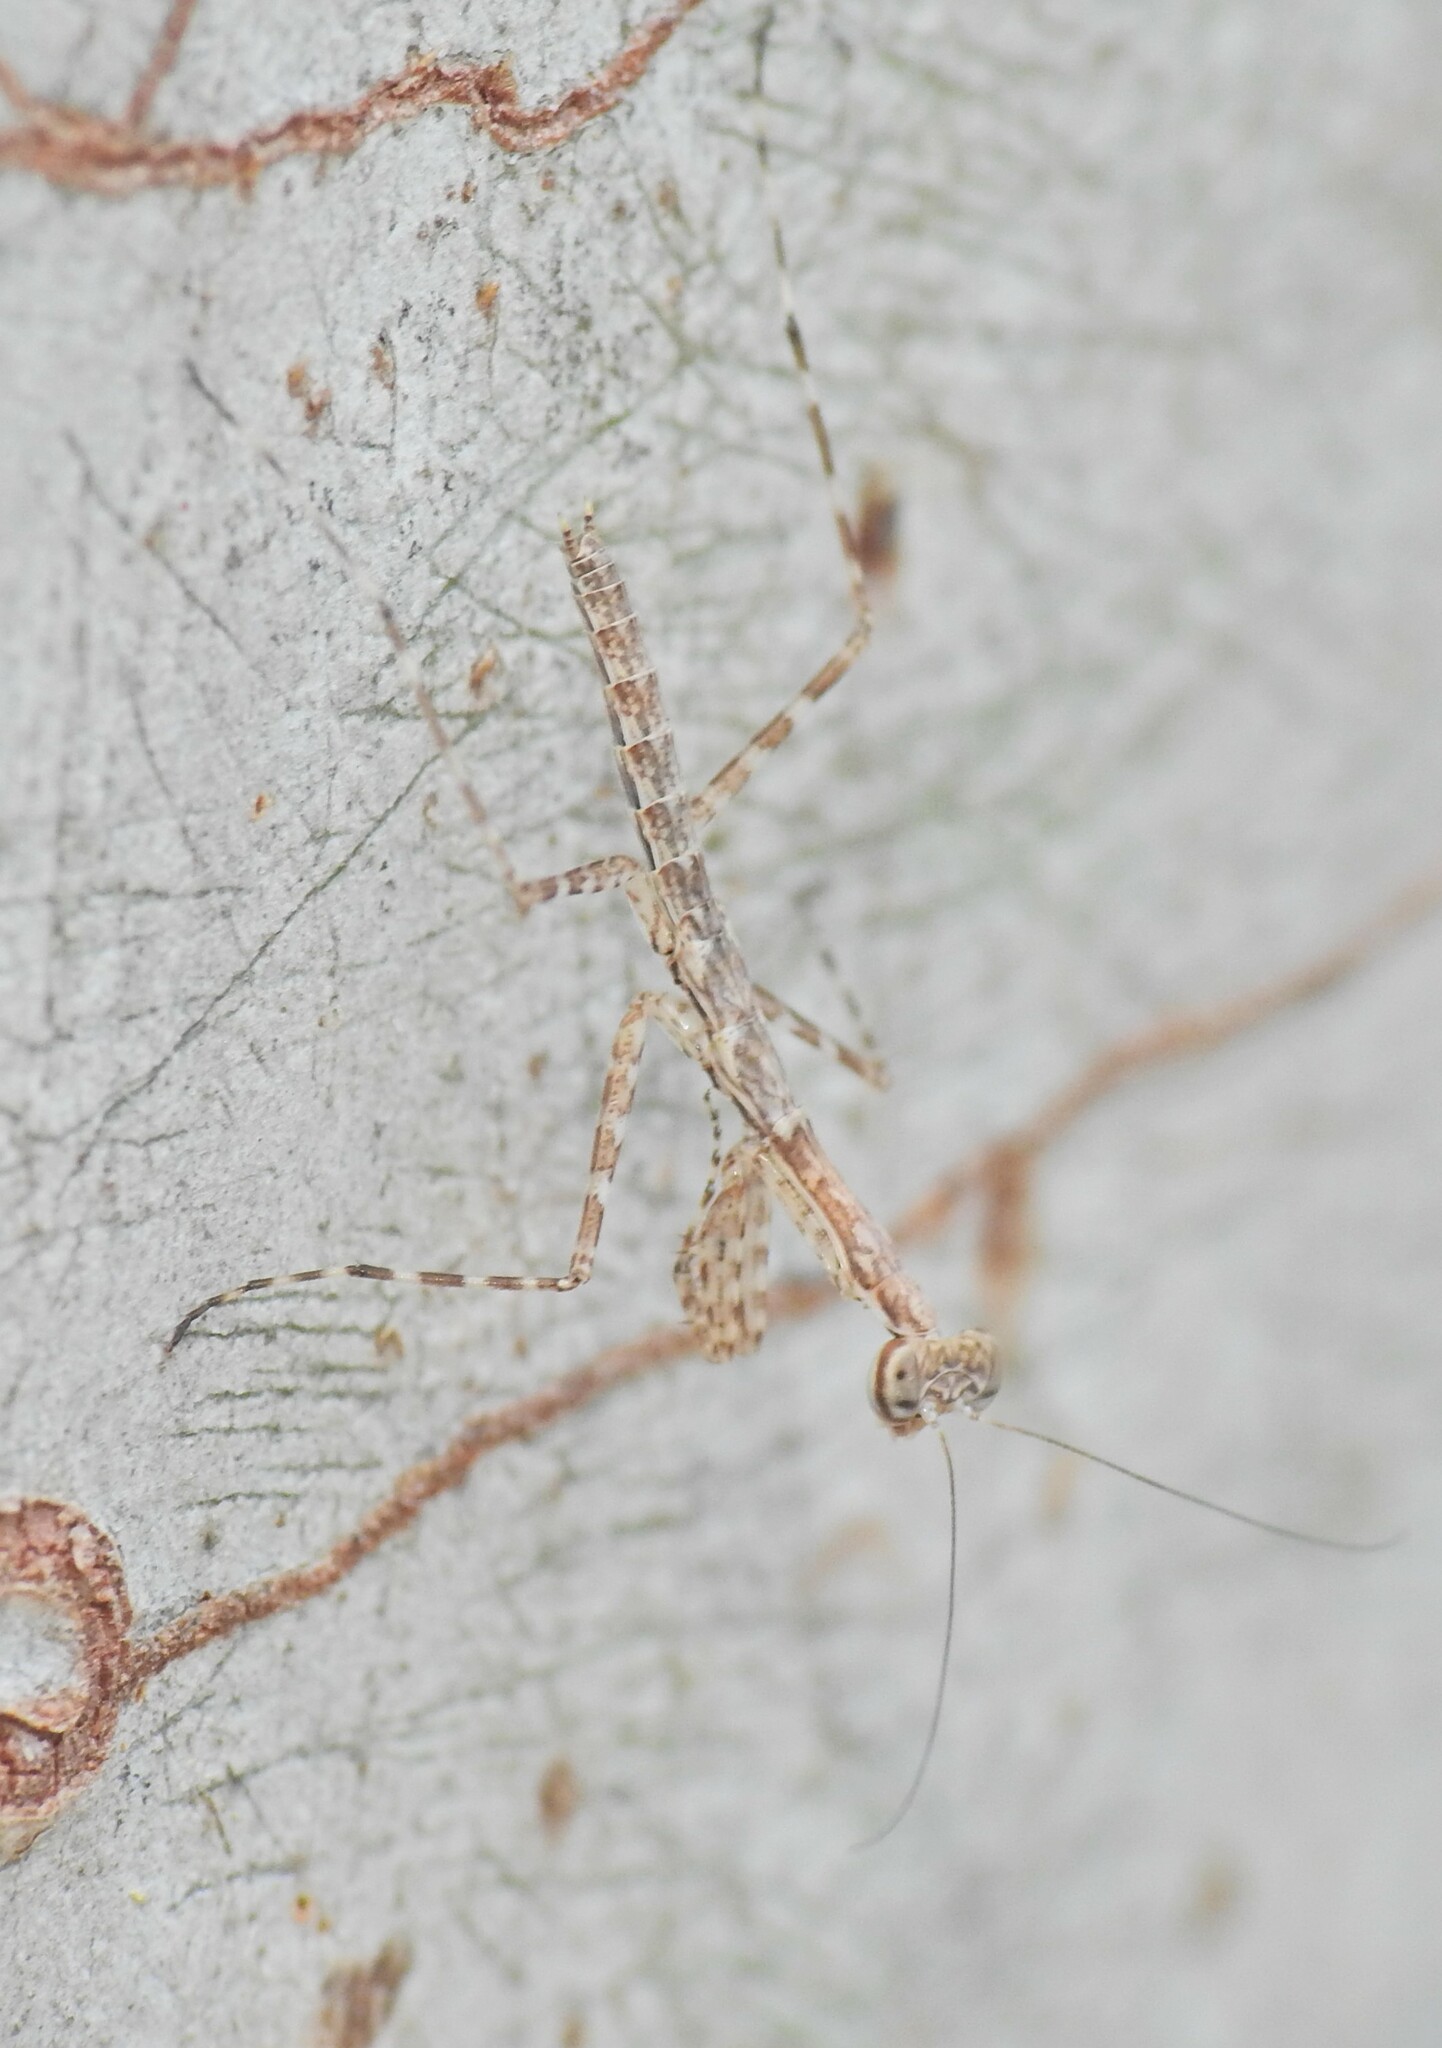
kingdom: Animalia
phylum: Arthropoda
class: Insecta
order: Mantodea
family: Nanomantidae
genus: Ciulfina
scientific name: Ciulfina baldersoni
